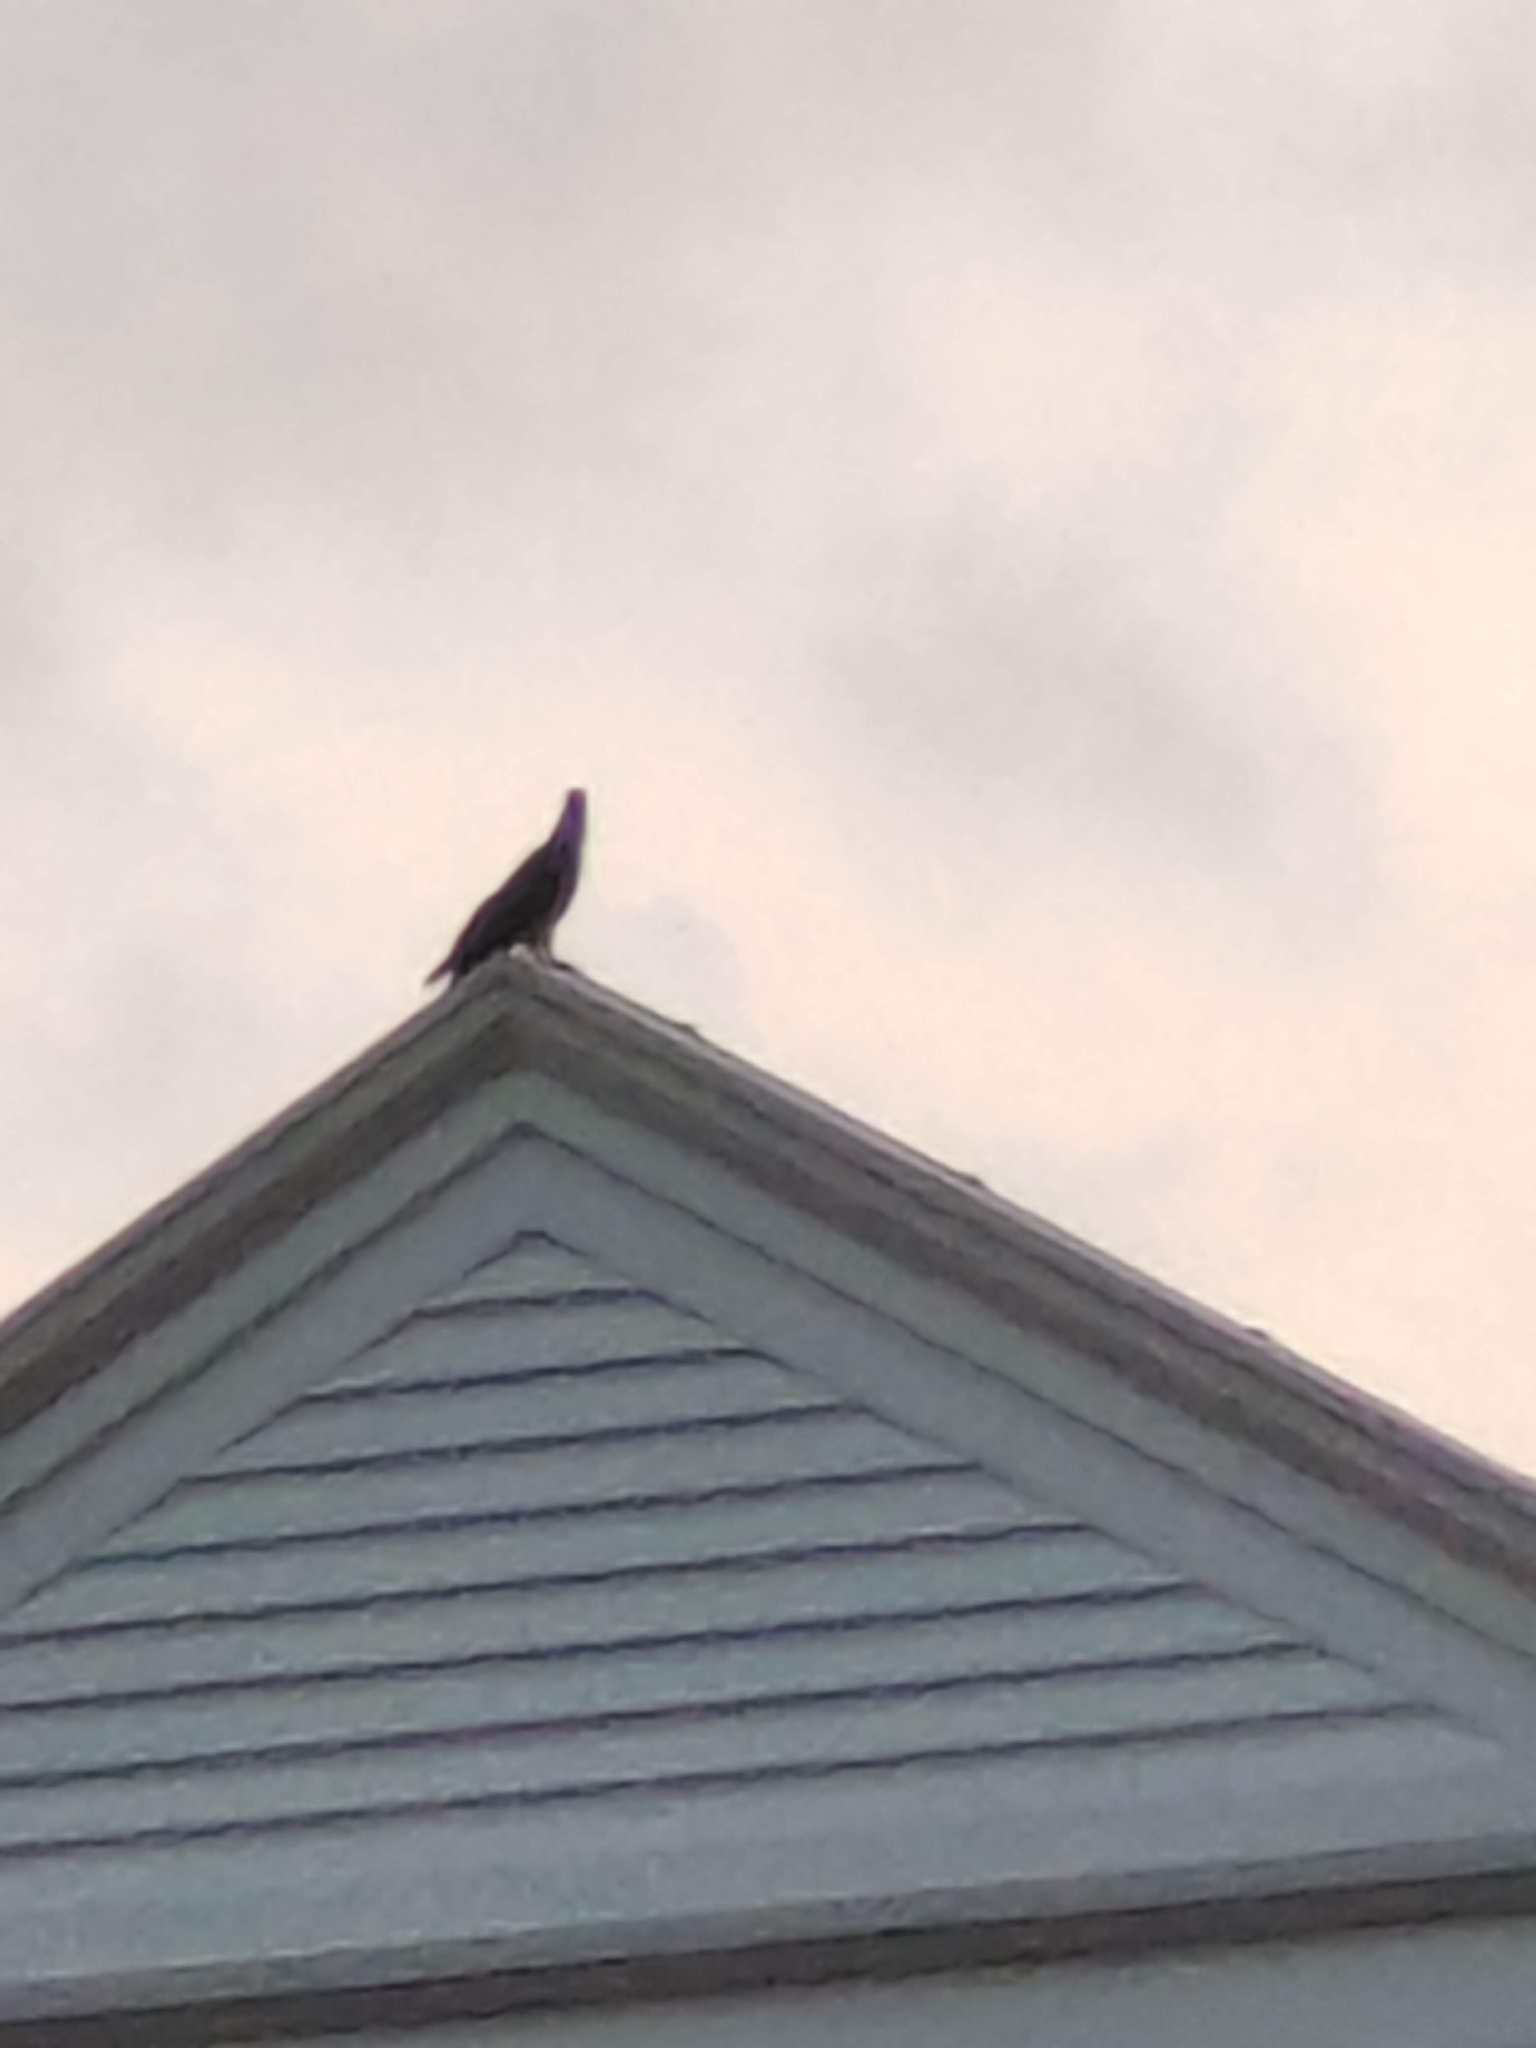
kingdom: Animalia
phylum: Chordata
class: Aves
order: Accipitriformes
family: Accipitridae
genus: Pernis
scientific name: Pernis ptilorhynchus
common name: Crested honey buzzard
